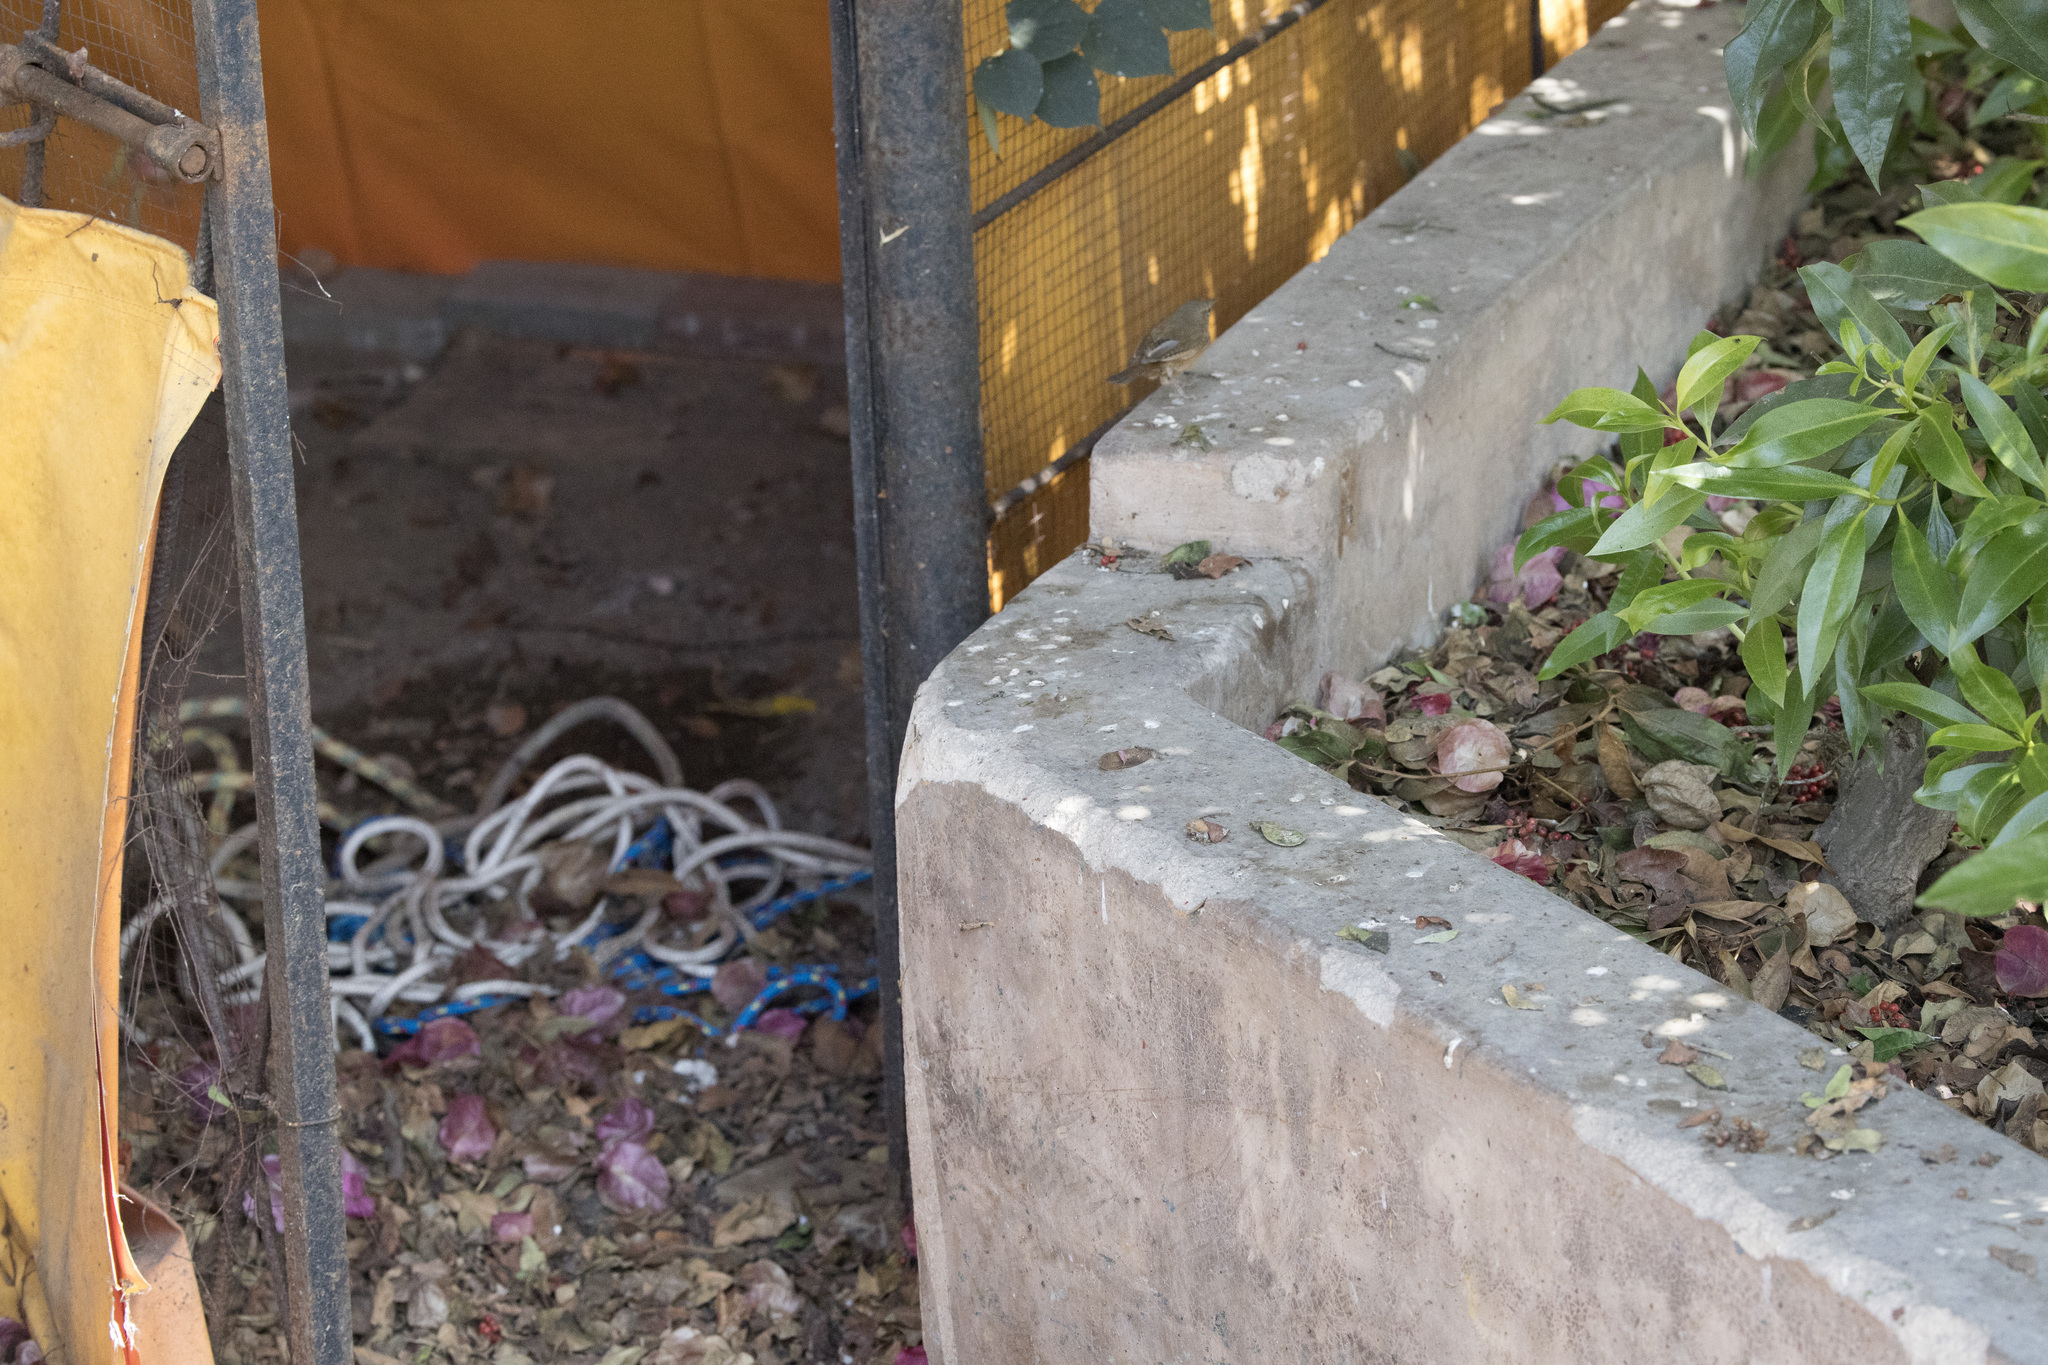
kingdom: Animalia
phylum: Chordata
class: Aves
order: Passeriformes
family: Troglodytidae
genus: Troglodytes
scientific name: Troglodytes aedon
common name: House wren
